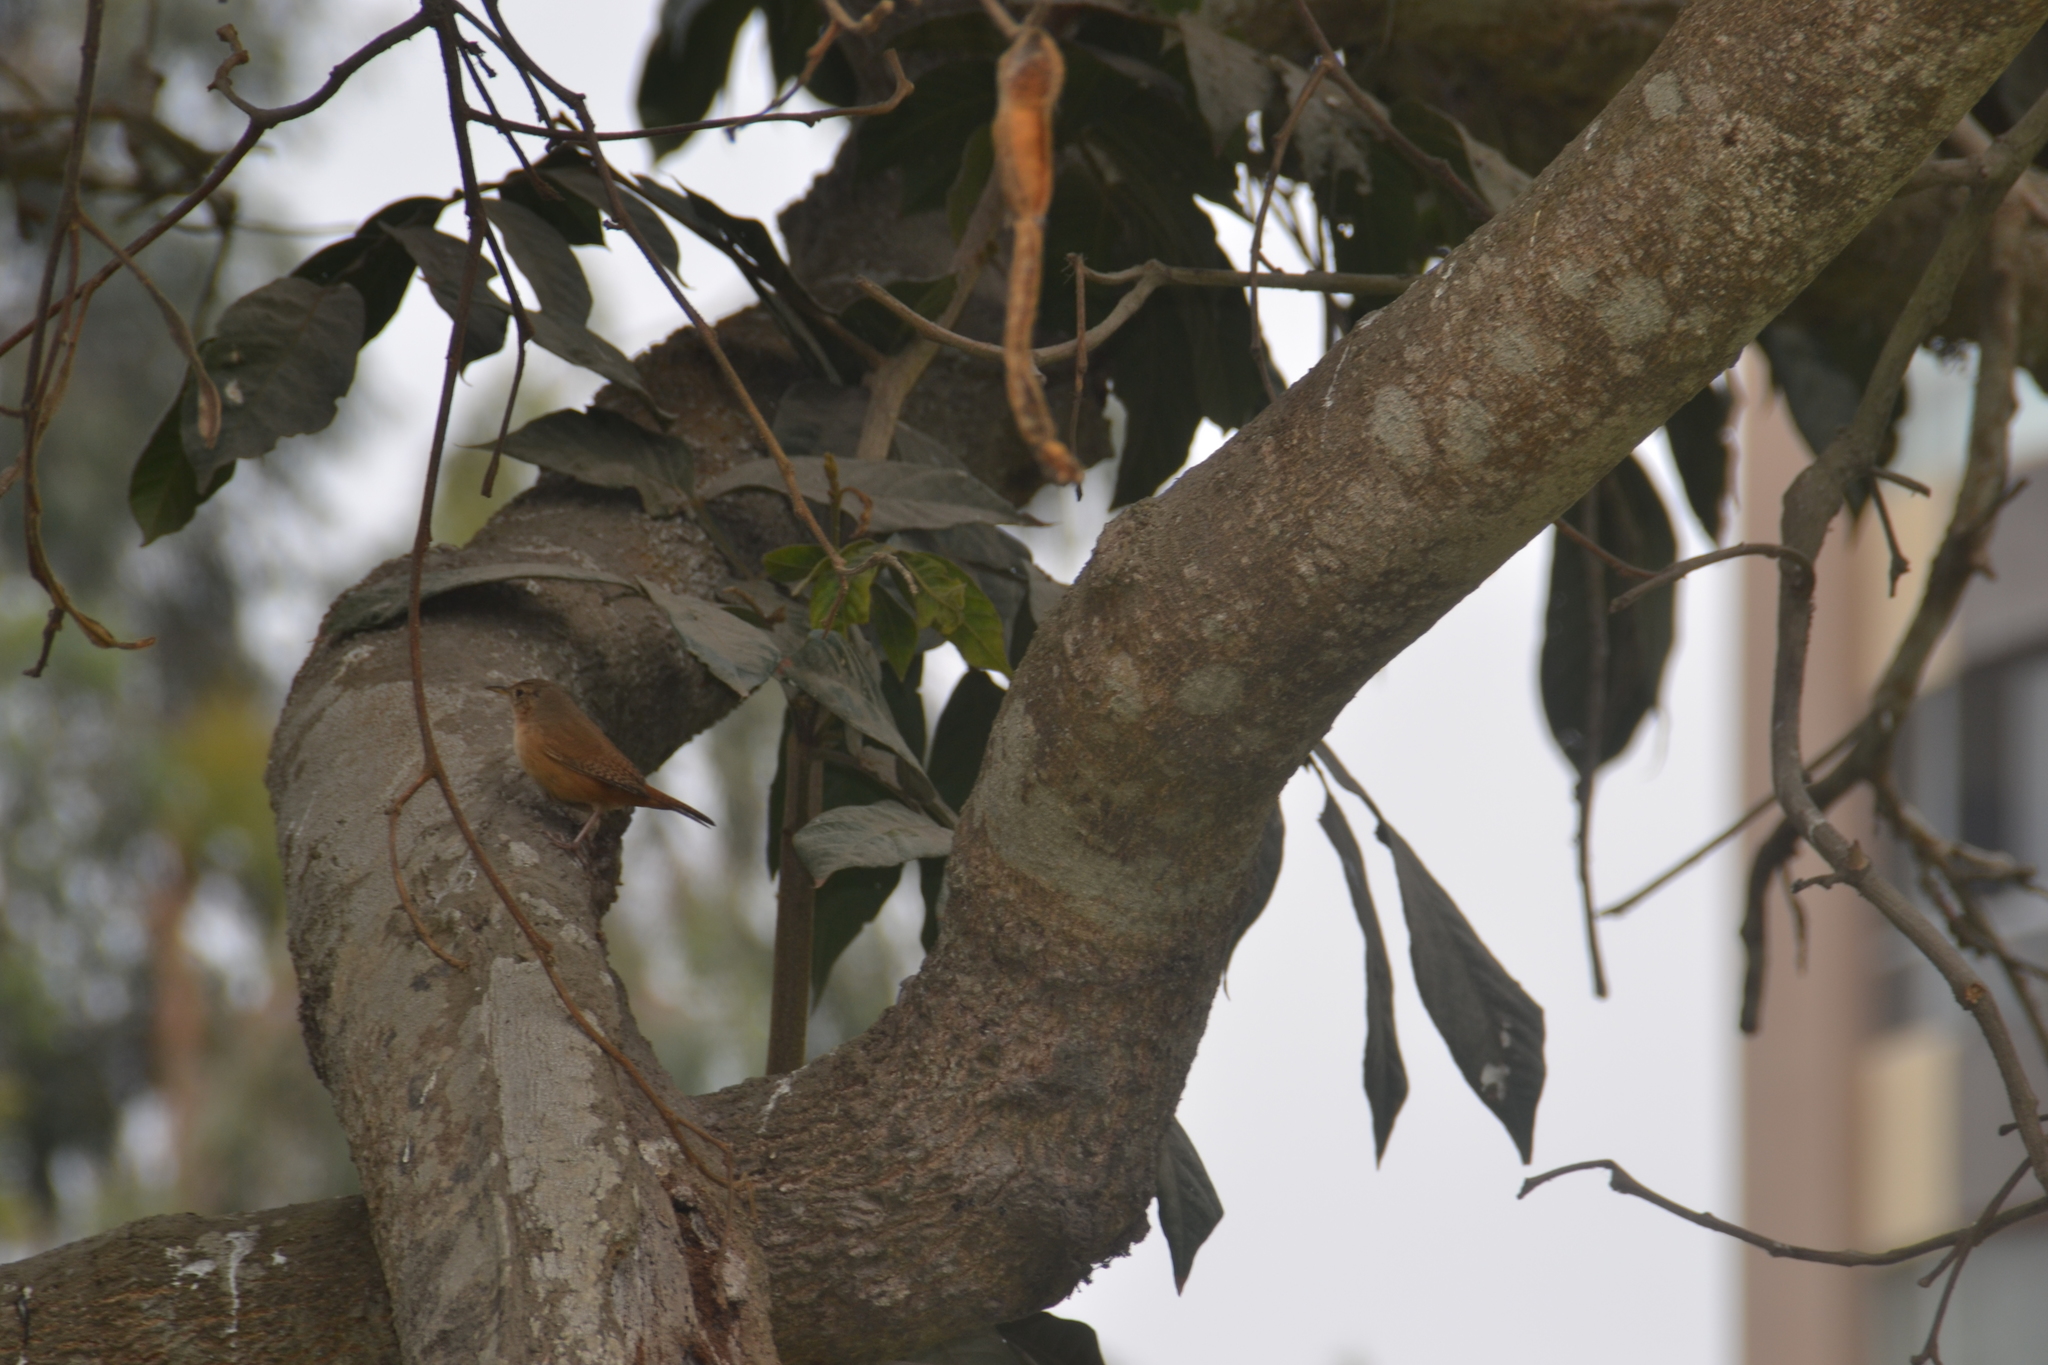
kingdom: Animalia
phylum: Chordata
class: Aves
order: Passeriformes
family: Troglodytidae
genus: Troglodytes
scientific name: Troglodytes aedon
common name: House wren
